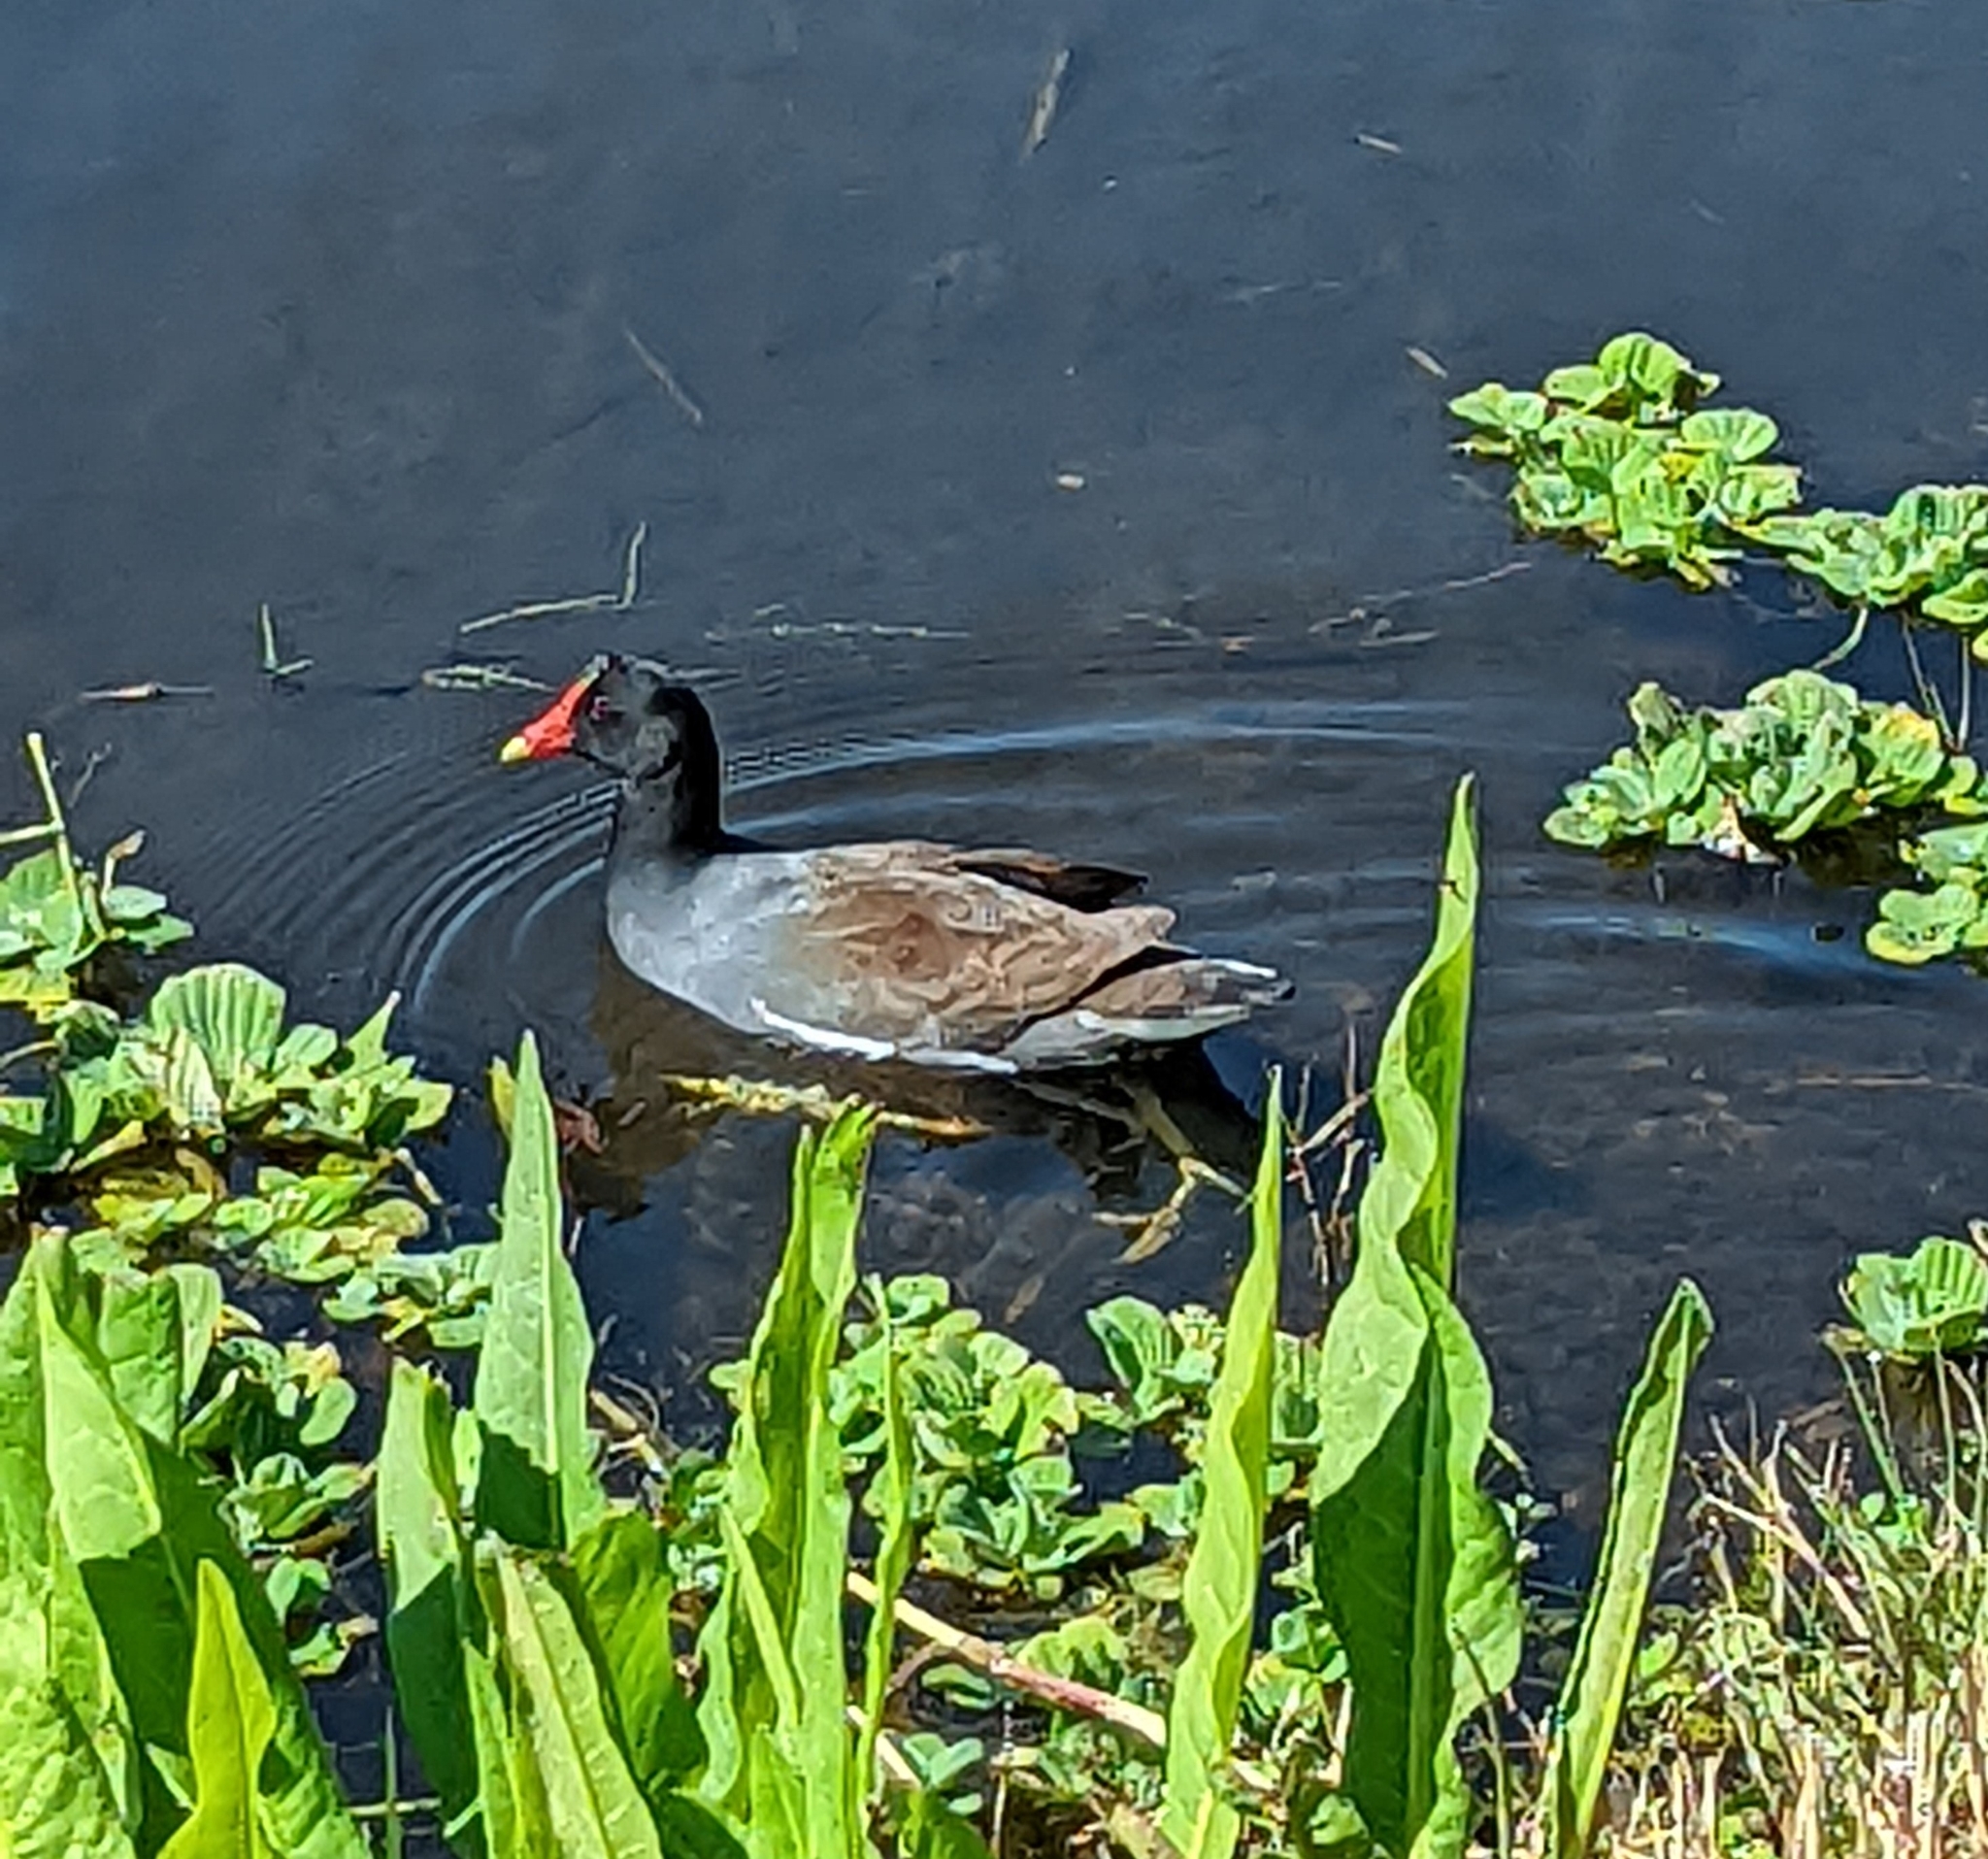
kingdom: Animalia
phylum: Chordata
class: Aves
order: Gruiformes
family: Rallidae
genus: Gallinula
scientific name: Gallinula chloropus
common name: Common moorhen
